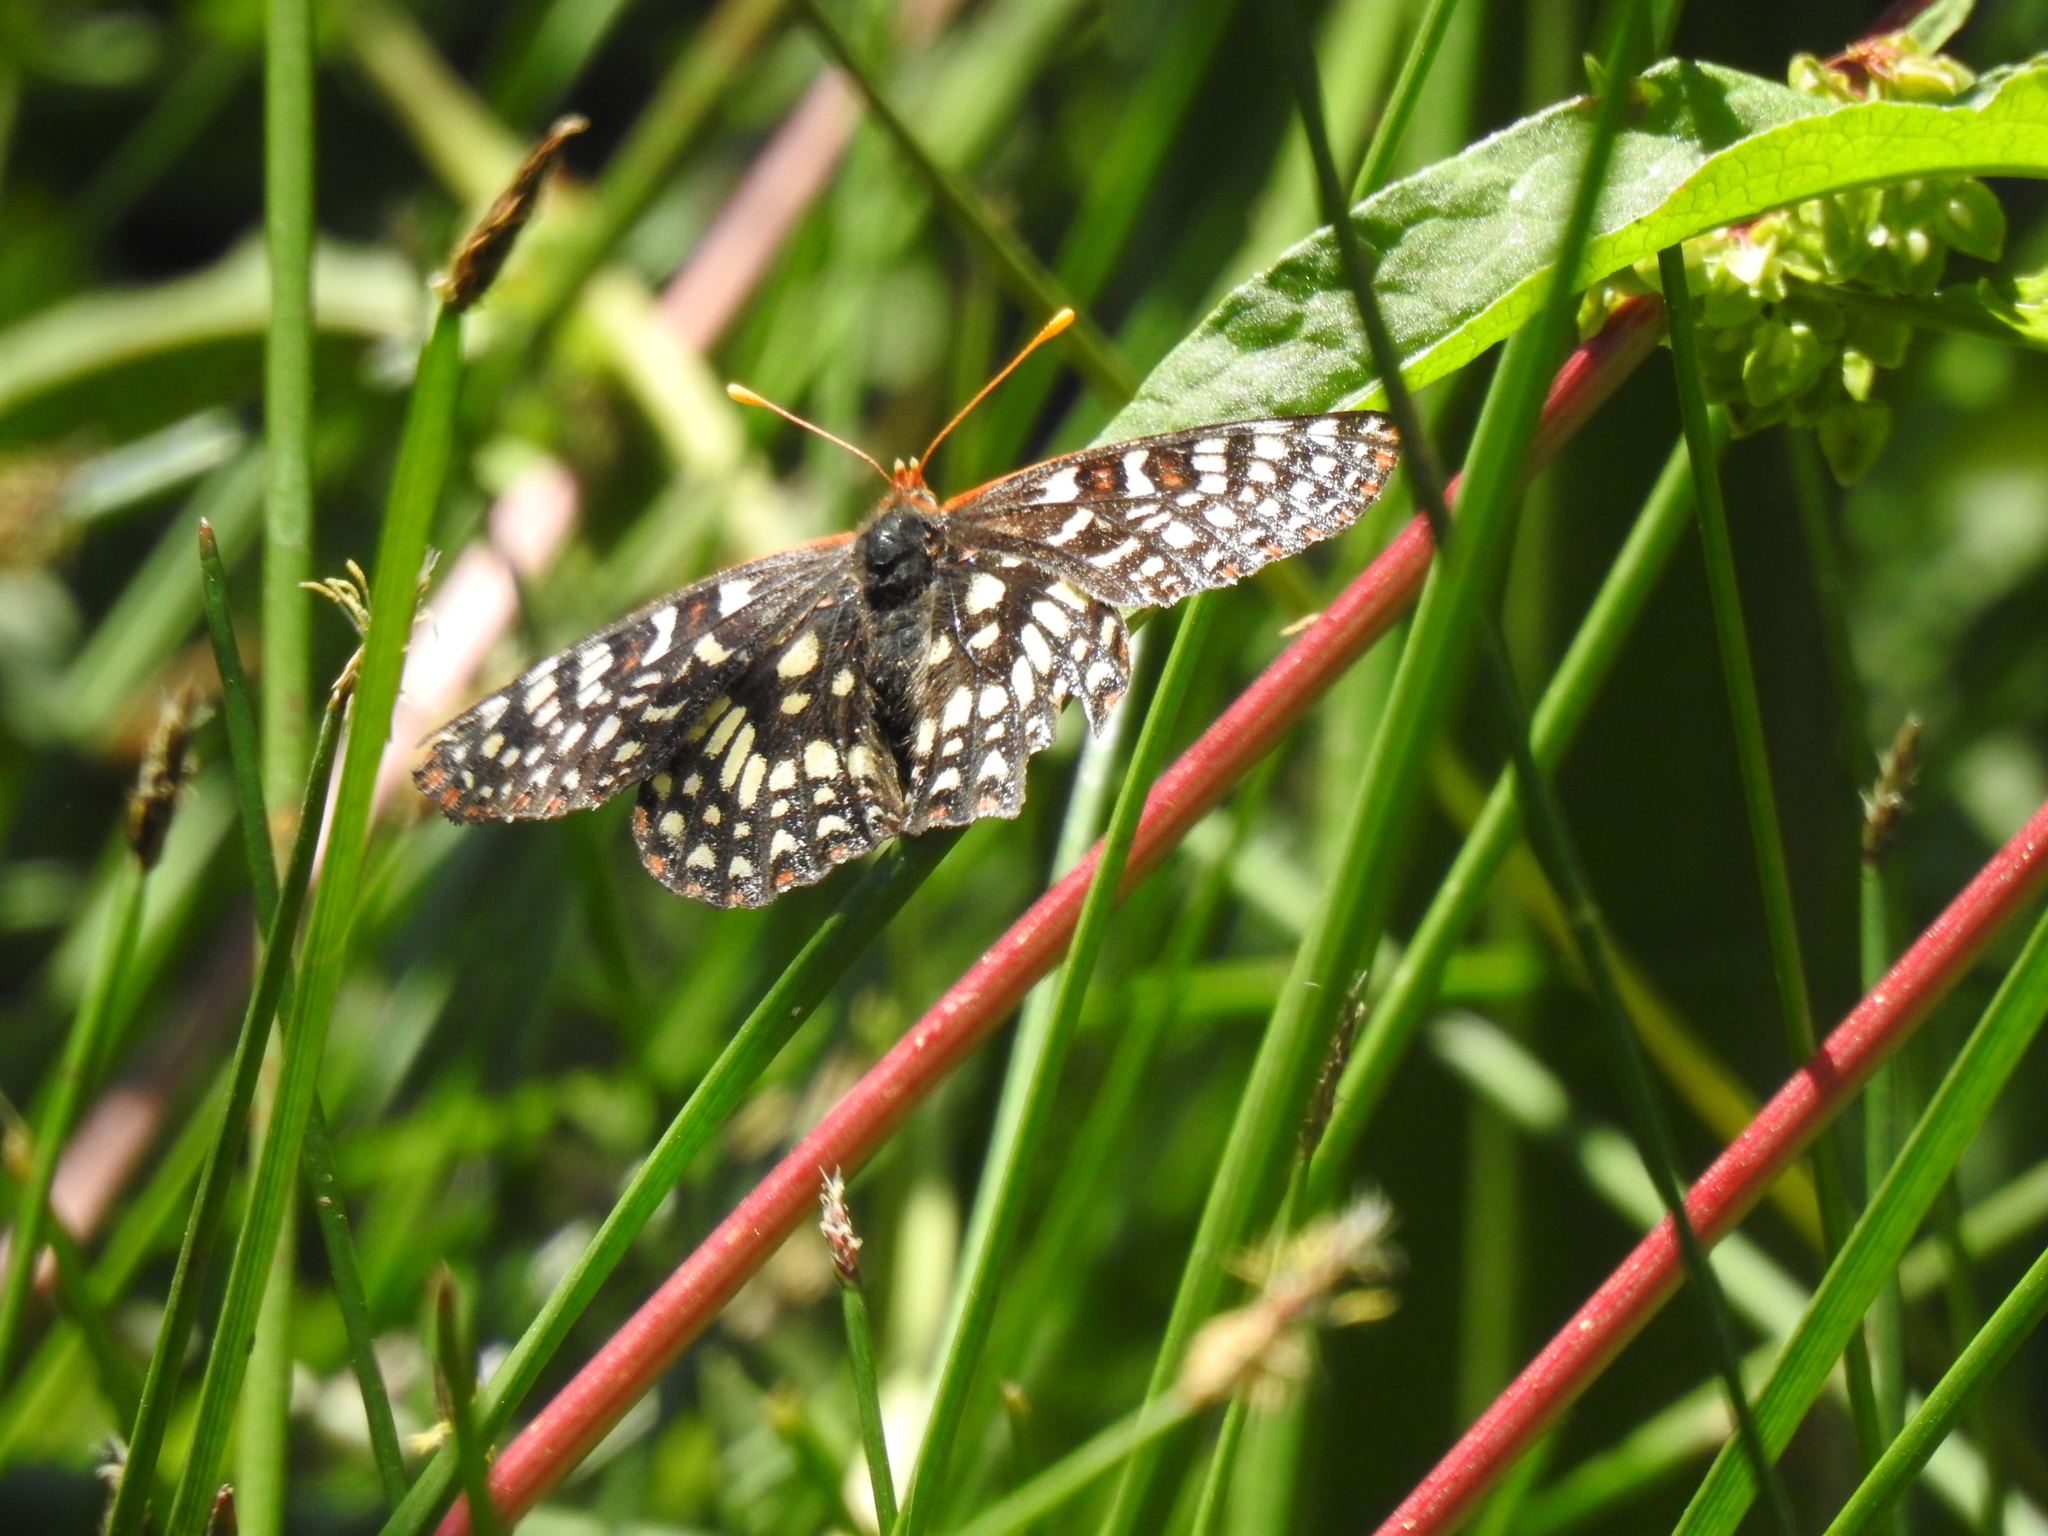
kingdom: Animalia
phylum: Arthropoda
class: Insecta
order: Lepidoptera
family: Nymphalidae
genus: Occidryas
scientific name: Occidryas chalcedona
